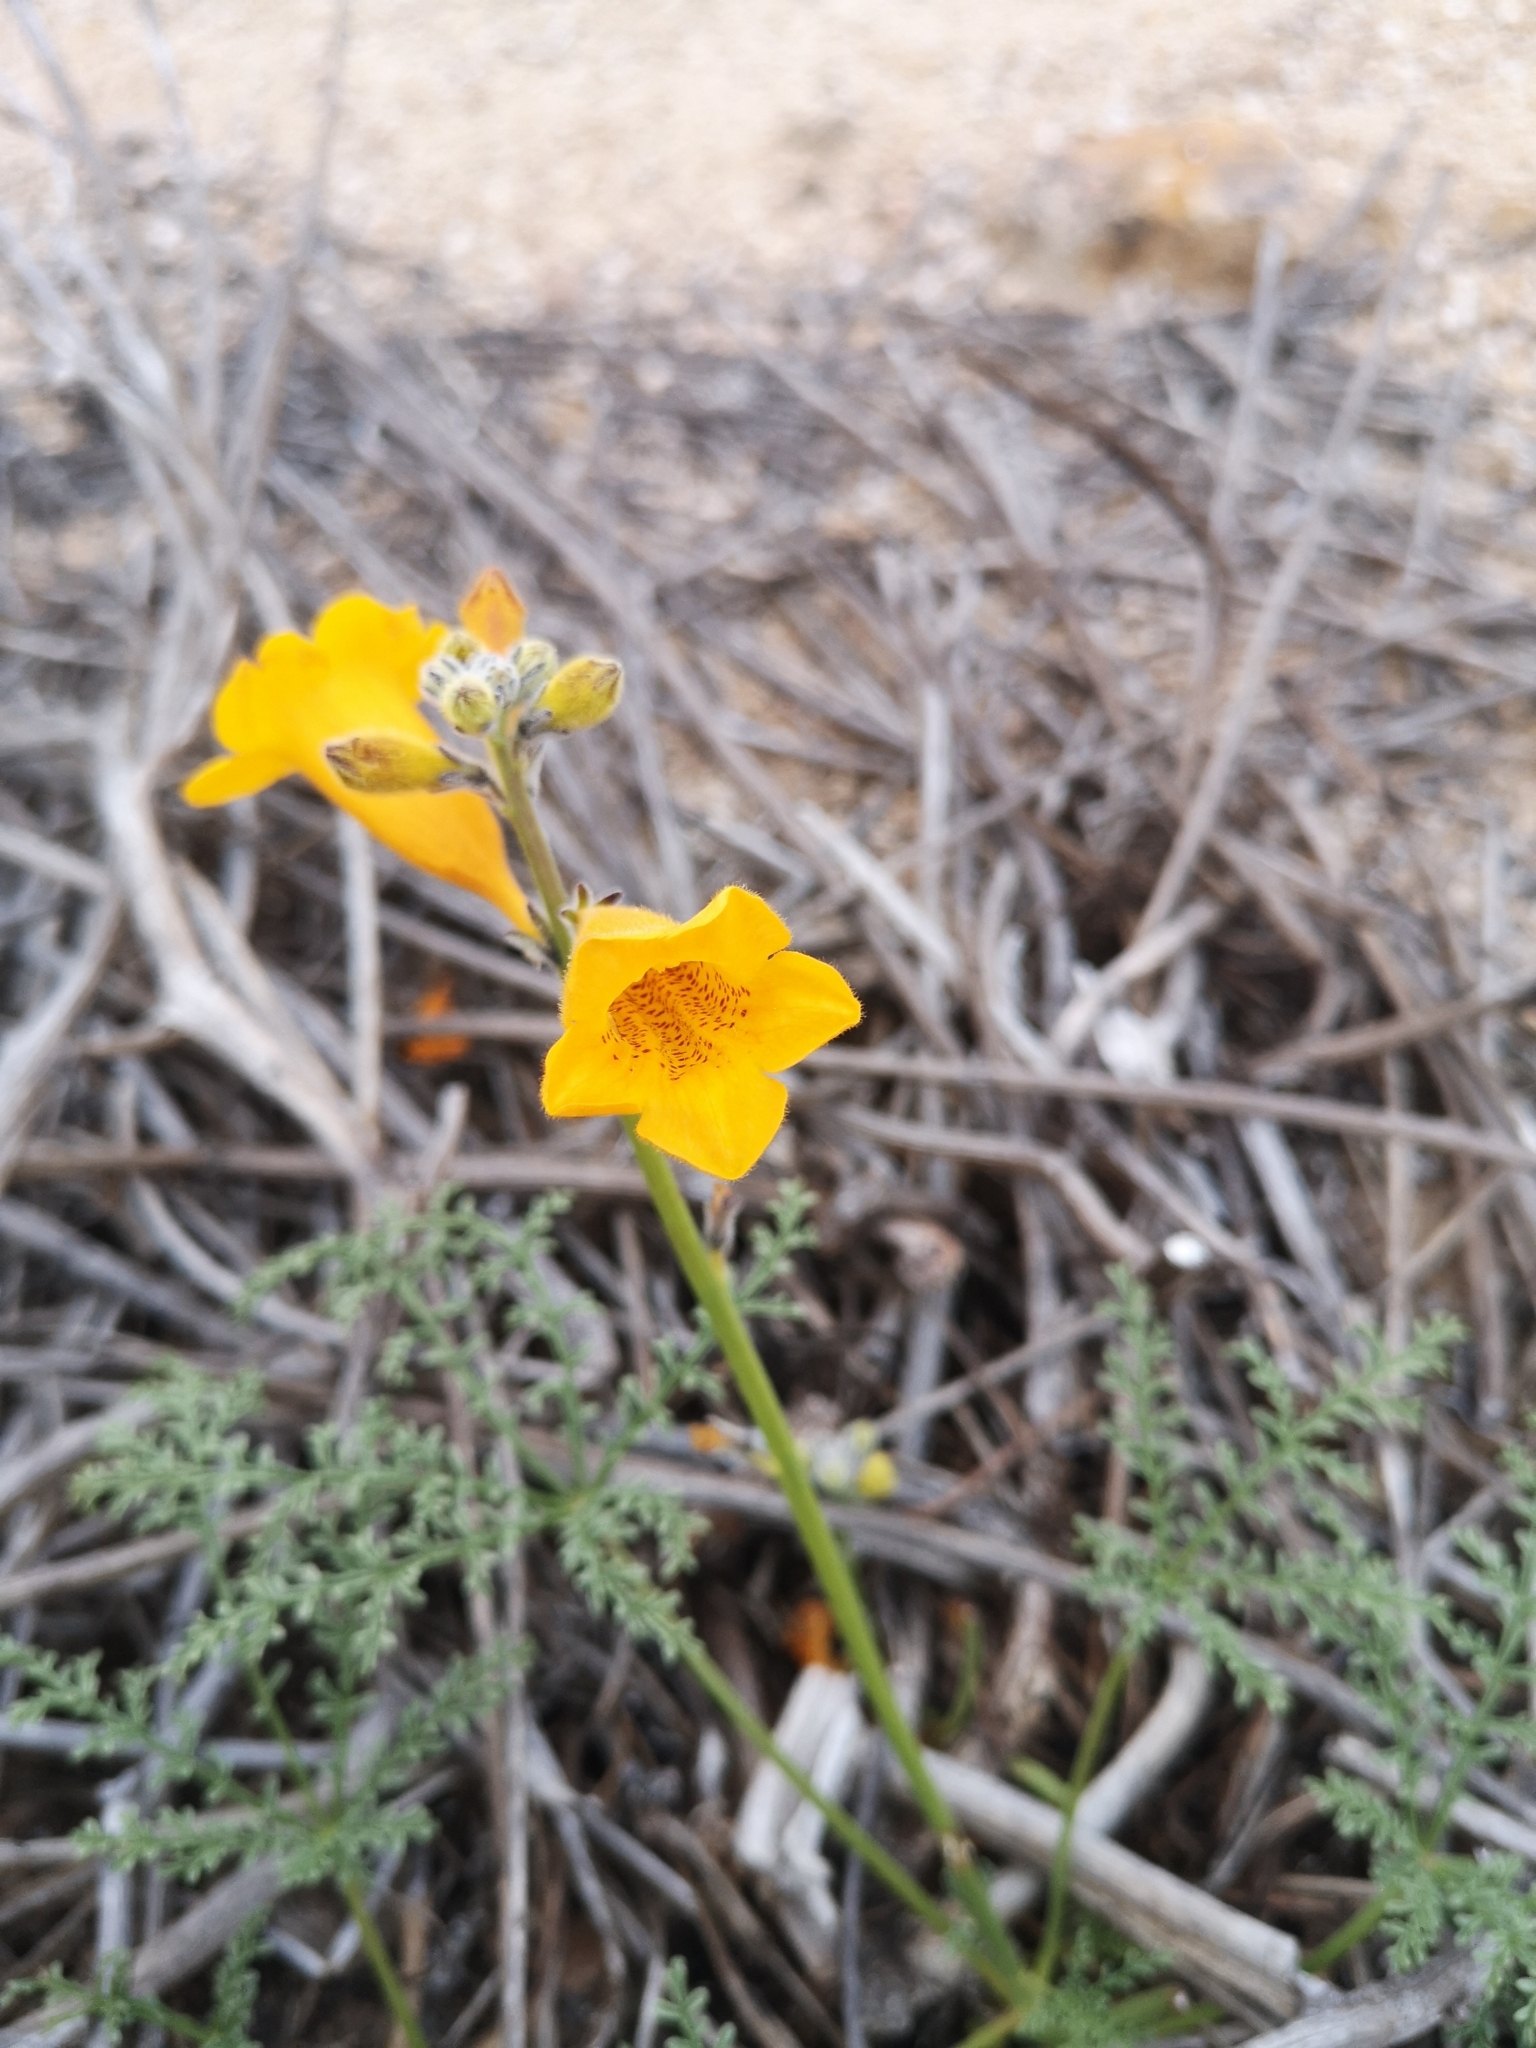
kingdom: Plantae
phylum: Tracheophyta
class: Magnoliopsida
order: Lamiales
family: Bignoniaceae
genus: Argylia
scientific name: Argylia radiata
